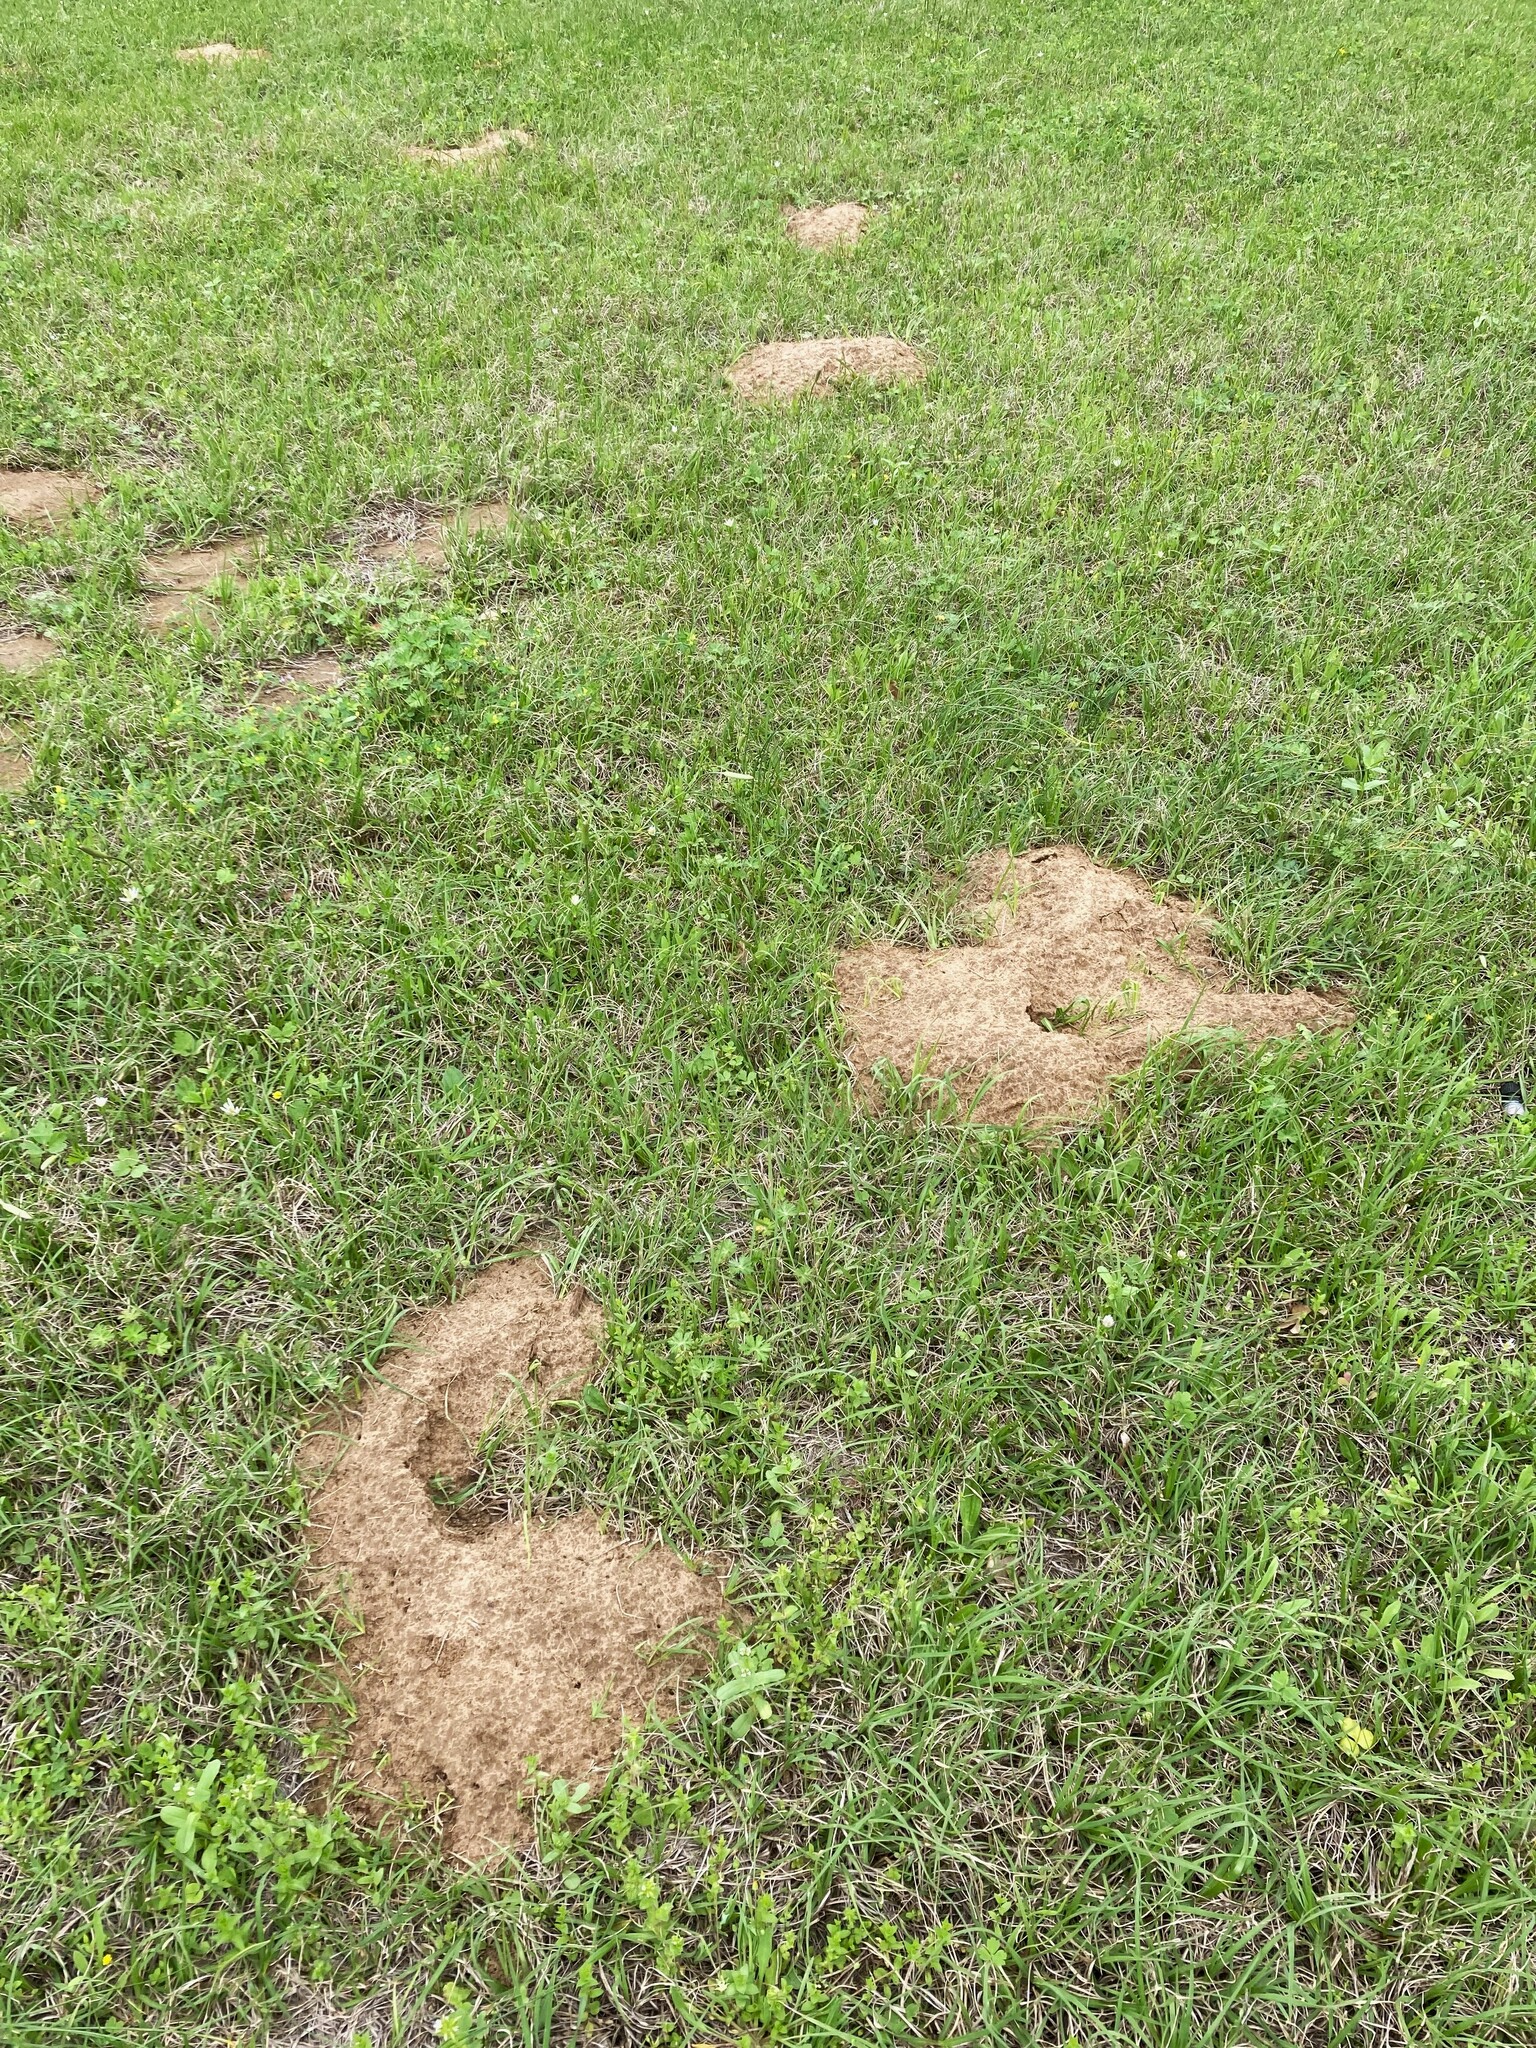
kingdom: Animalia
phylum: Chordata
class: Mammalia
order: Rodentia
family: Geomyidae
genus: Geomys
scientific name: Geomys attwateri
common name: Attwater's pocket gopher
